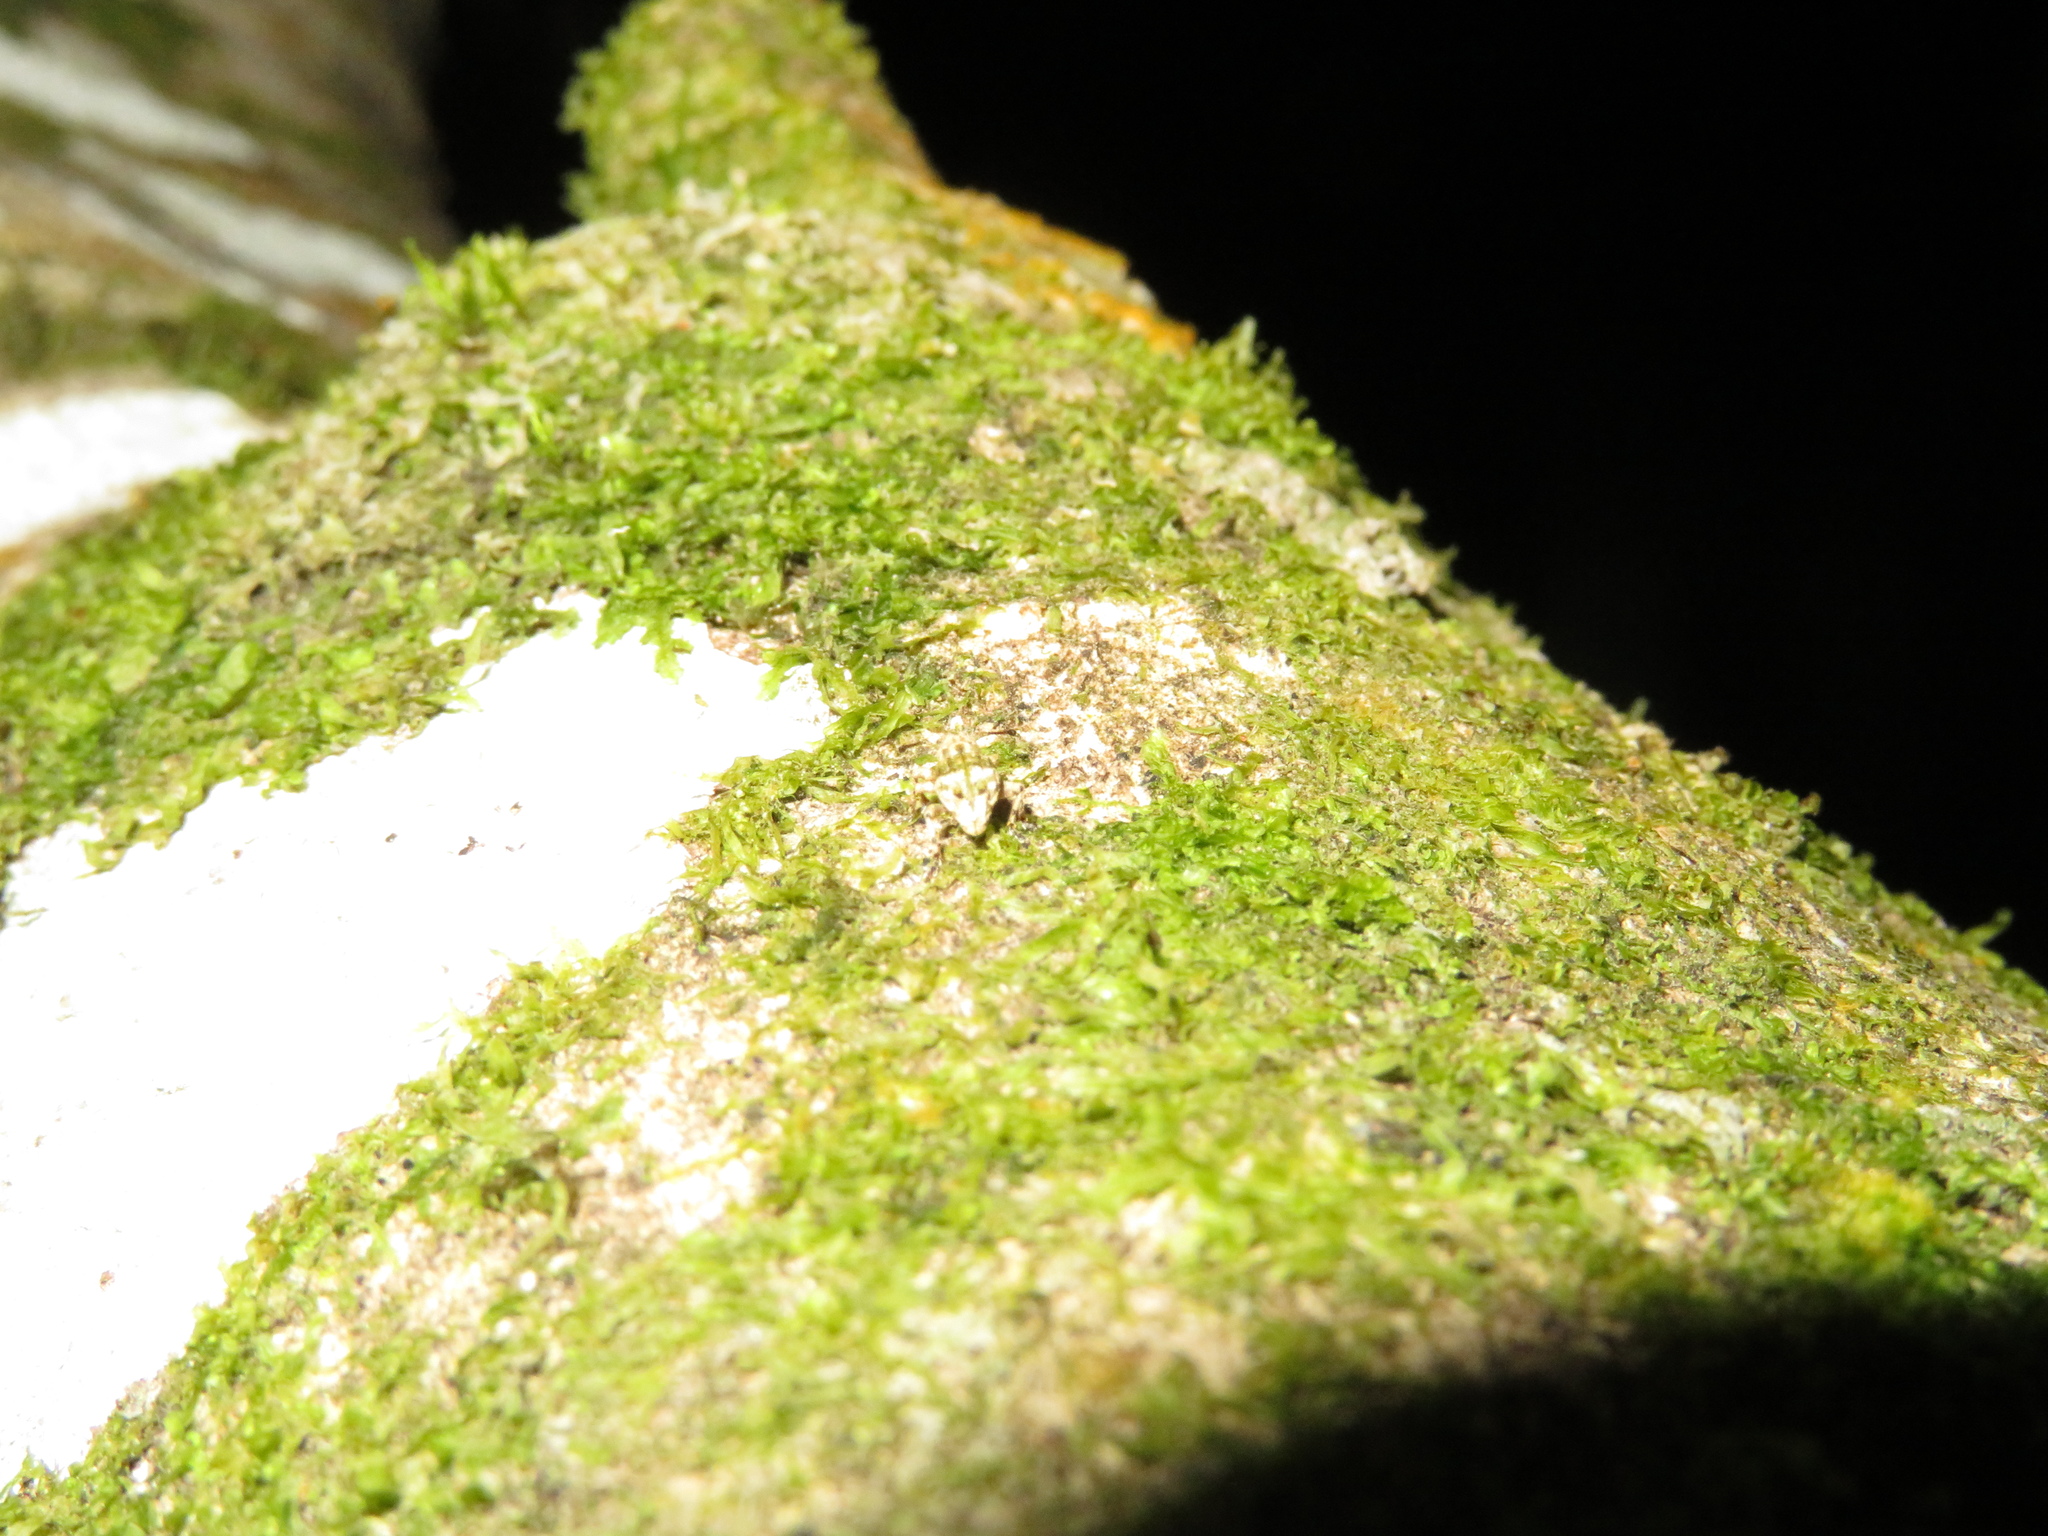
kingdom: Animalia
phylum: Arthropoda
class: Insecta
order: Coleoptera
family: Curculionidae
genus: Brachyolus
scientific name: Brachyolus punctatus
